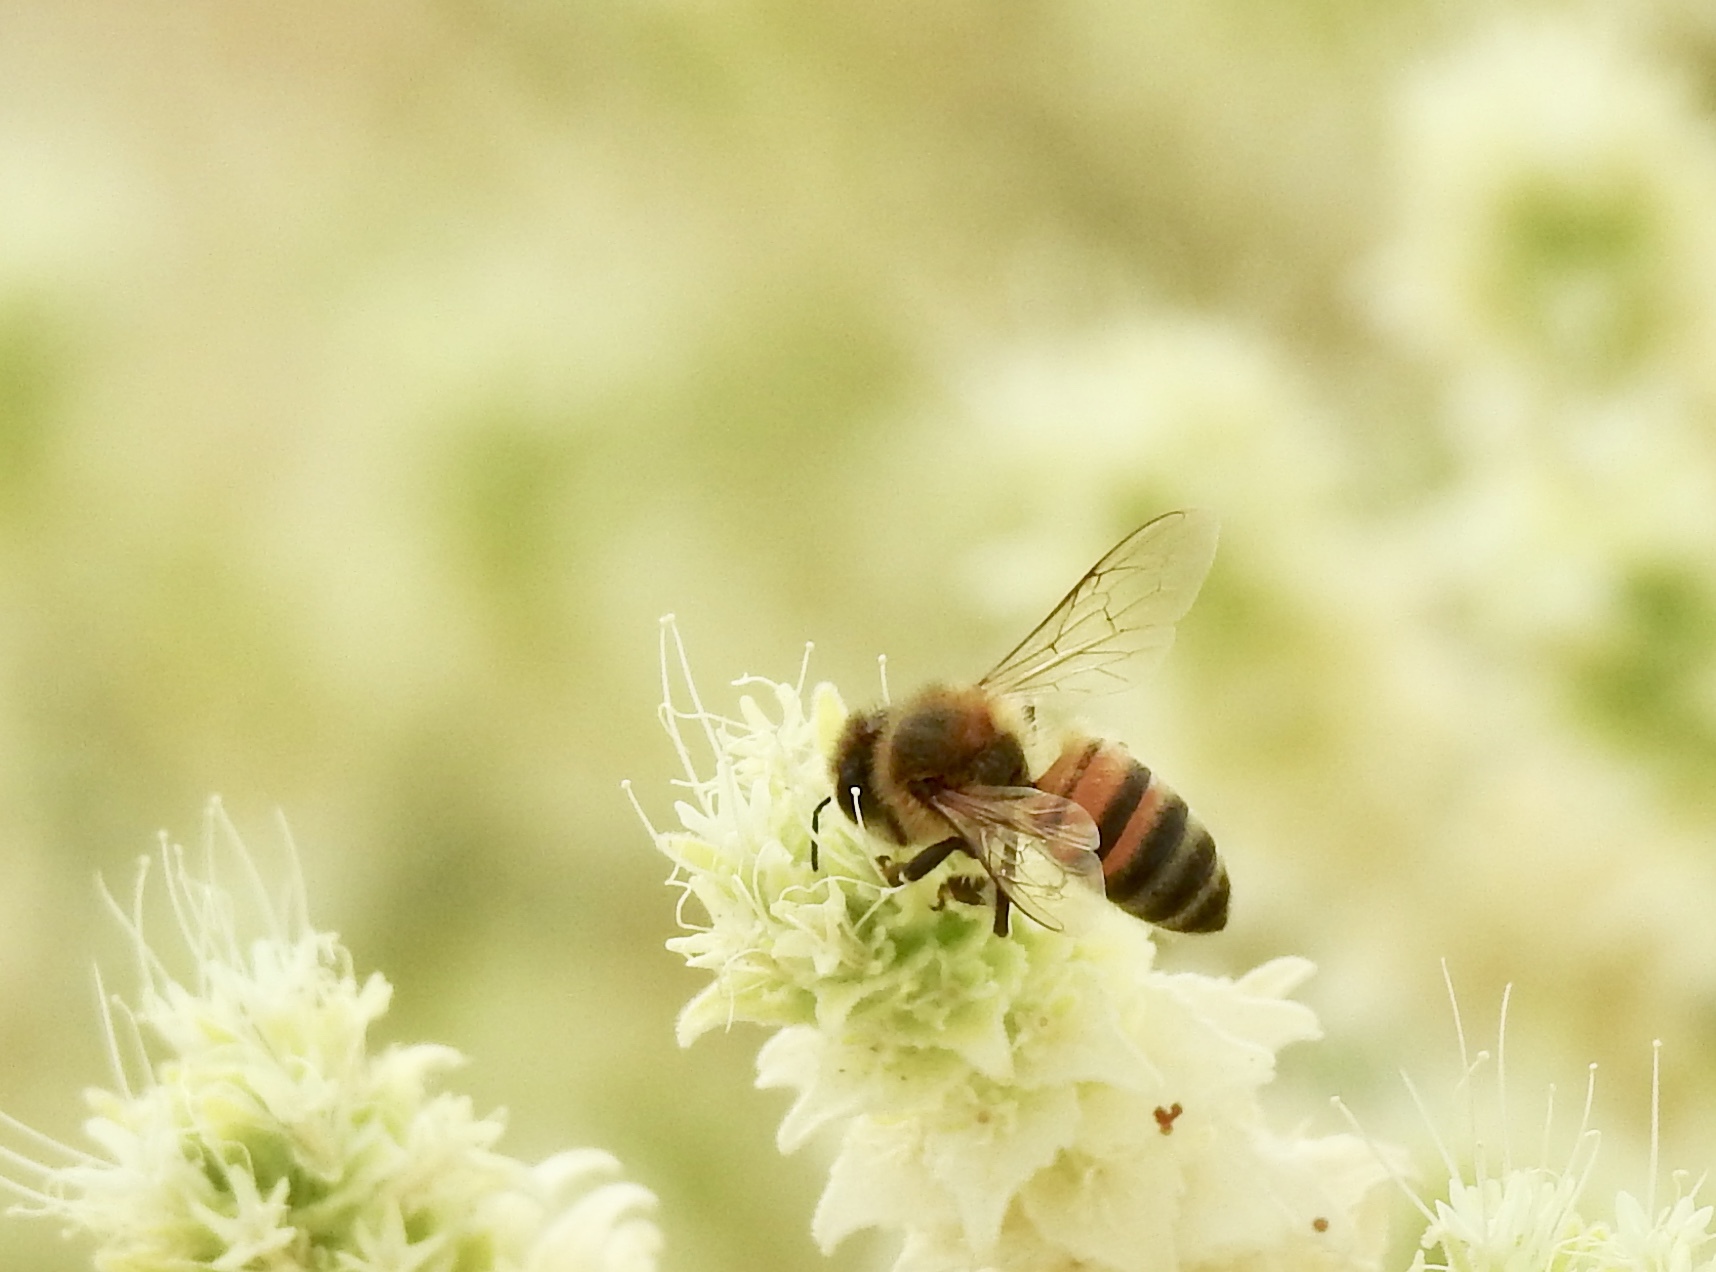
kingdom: Animalia
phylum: Arthropoda
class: Insecta
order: Hymenoptera
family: Apidae
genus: Apis
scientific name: Apis mellifera
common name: Honey bee
